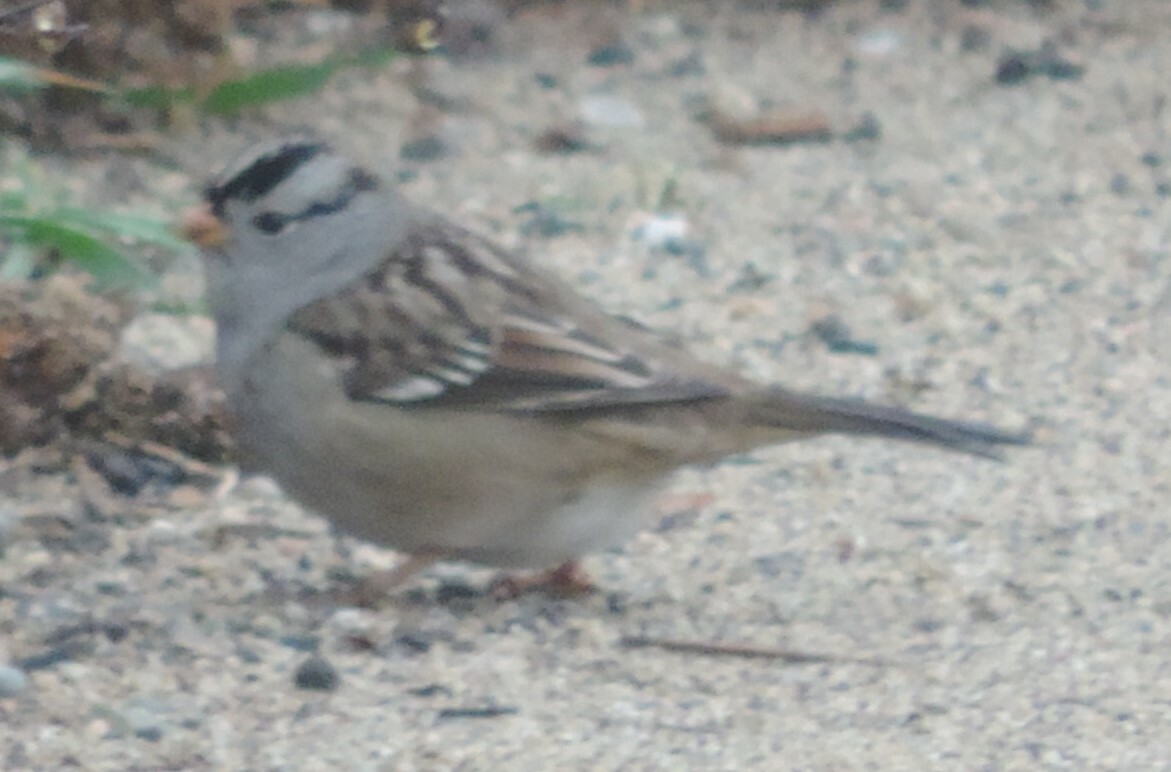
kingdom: Animalia
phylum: Chordata
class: Aves
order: Passeriformes
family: Passerellidae
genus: Zonotrichia
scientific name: Zonotrichia leucophrys
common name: White-crowned sparrow
